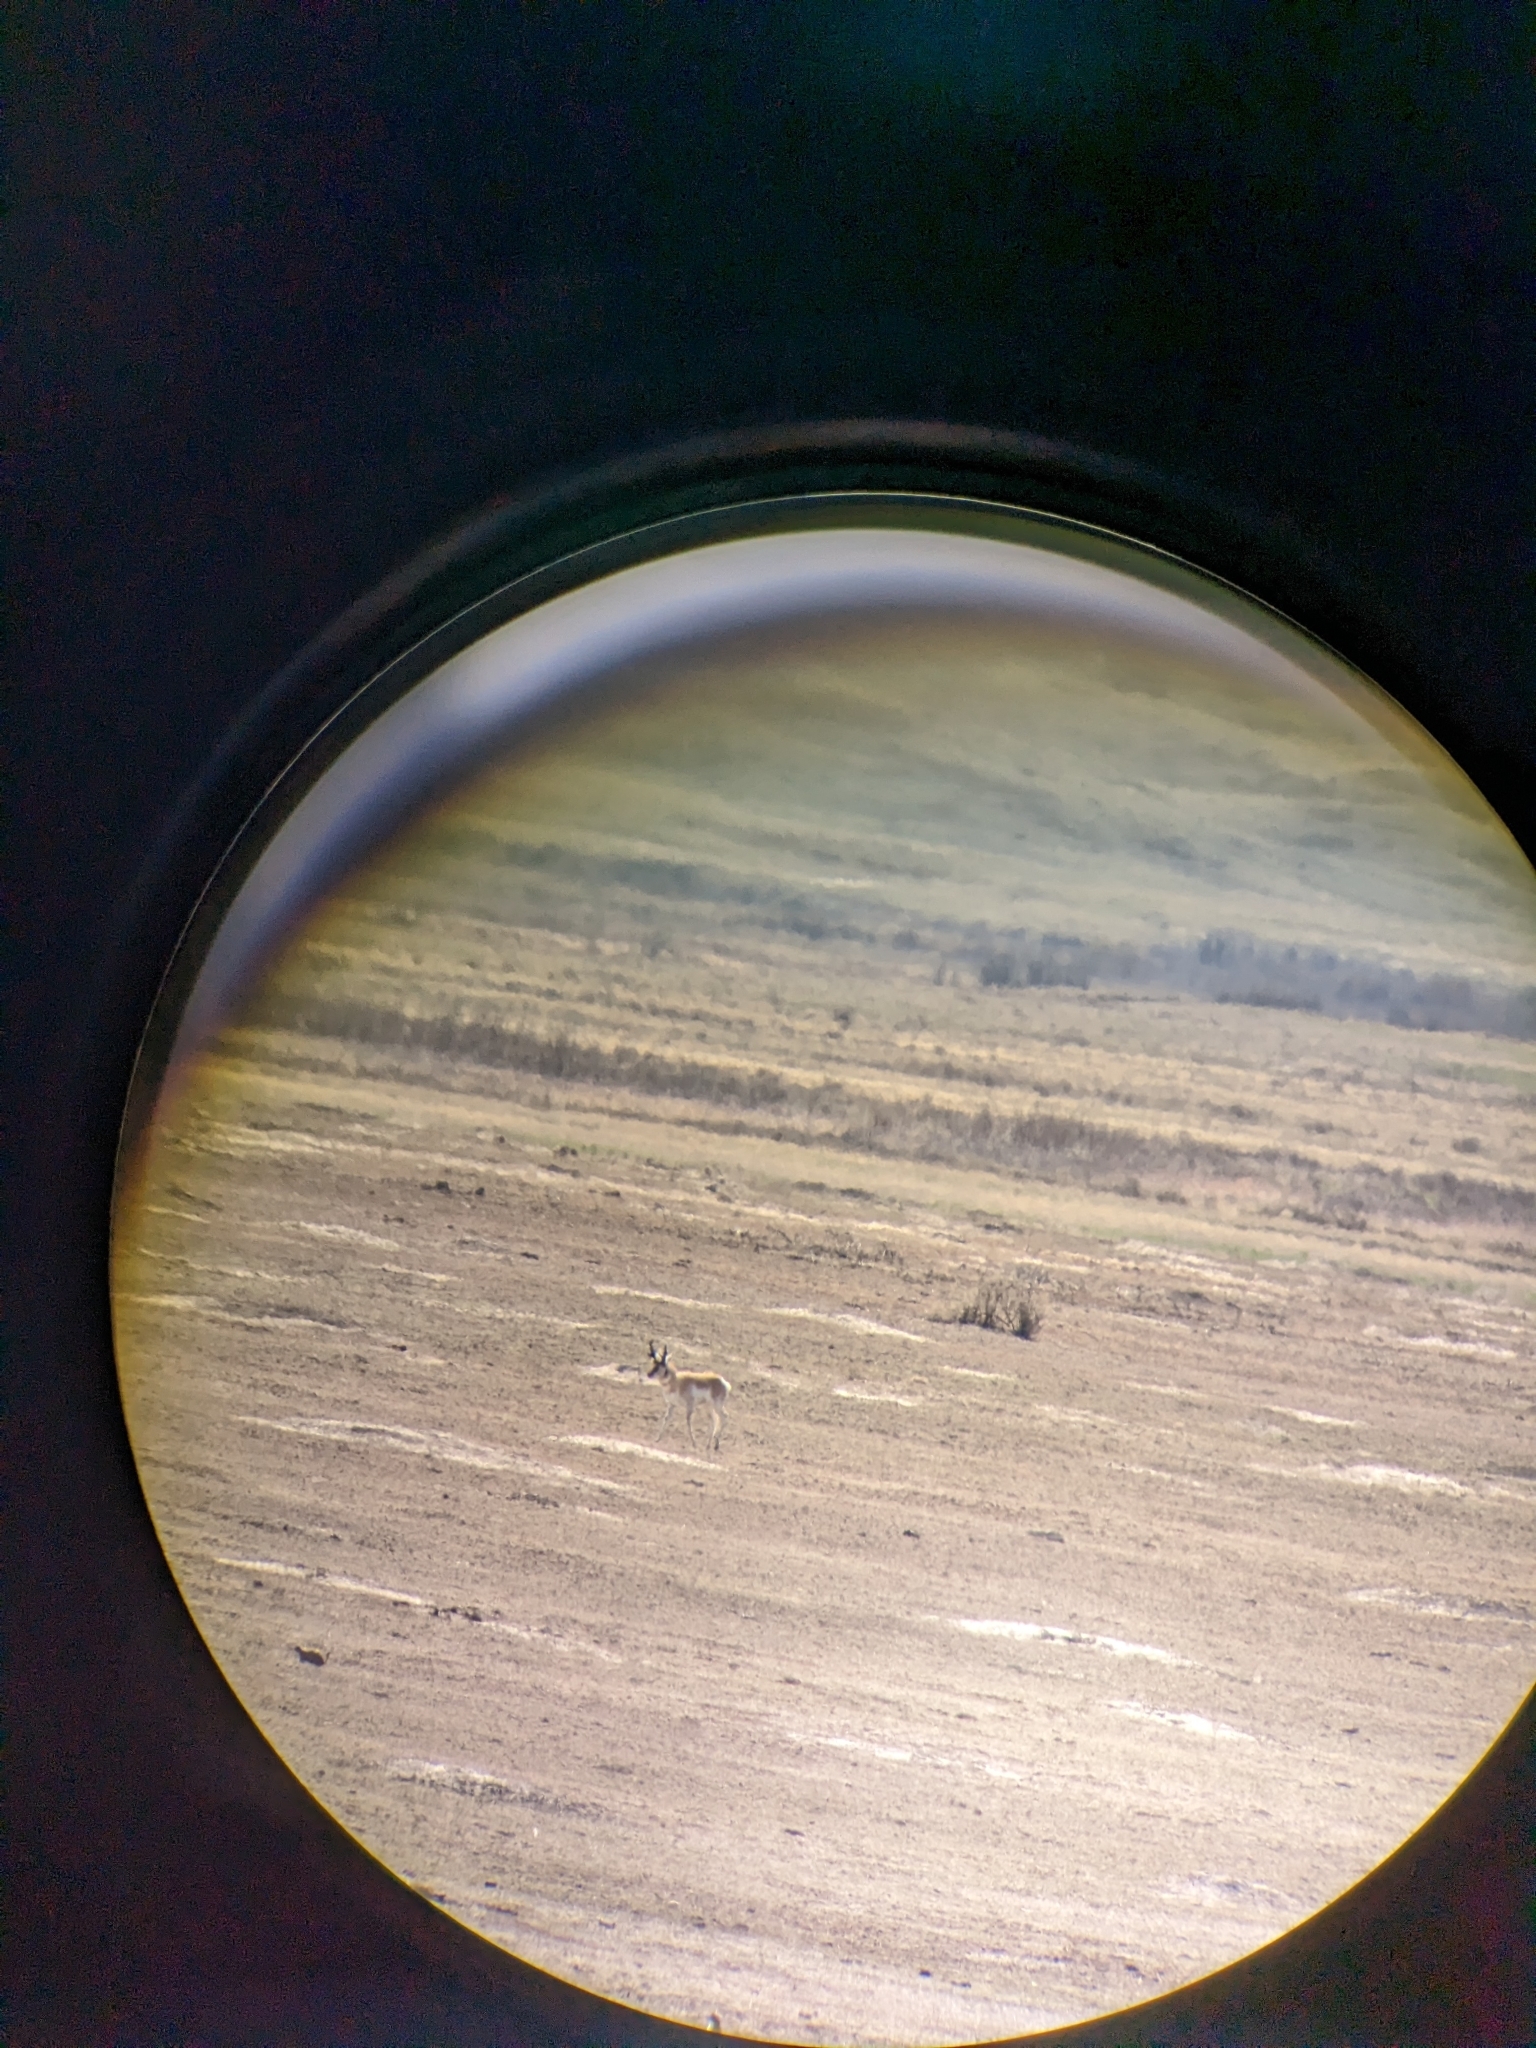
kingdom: Animalia
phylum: Chordata
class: Mammalia
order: Artiodactyla
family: Antilocapridae
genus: Antilocapra
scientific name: Antilocapra americana
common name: Pronghorn
